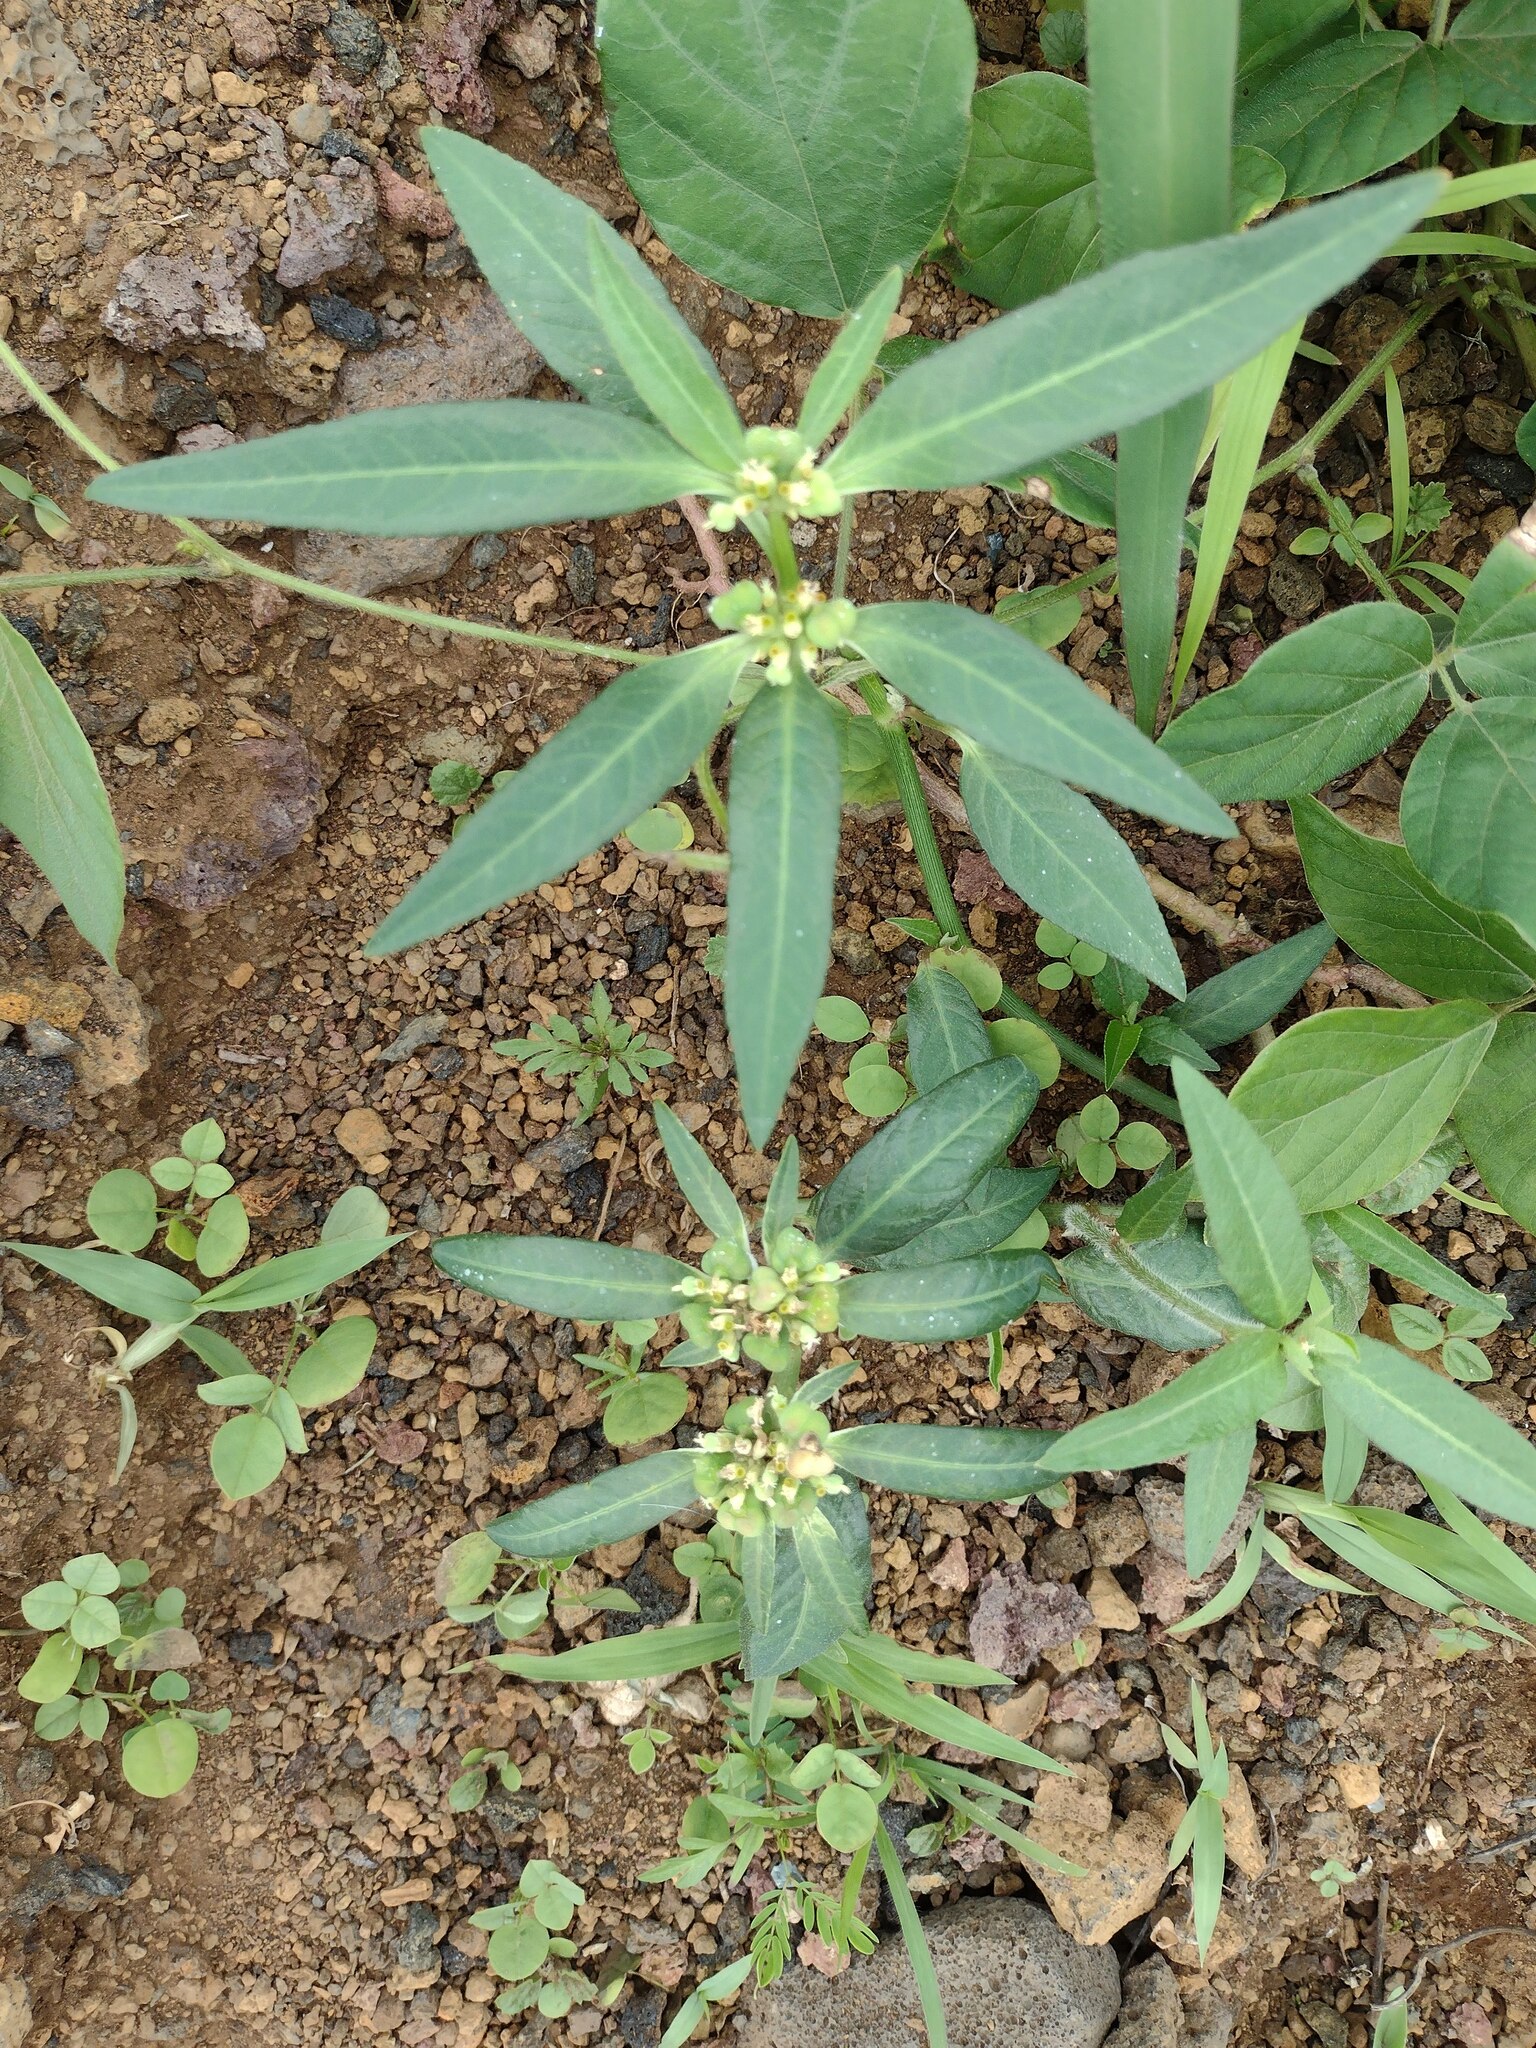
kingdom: Plantae
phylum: Tracheophyta
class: Magnoliopsida
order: Malpighiales
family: Euphorbiaceae
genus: Euphorbia
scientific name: Euphorbia heterophylla
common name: Mexican fireplant
